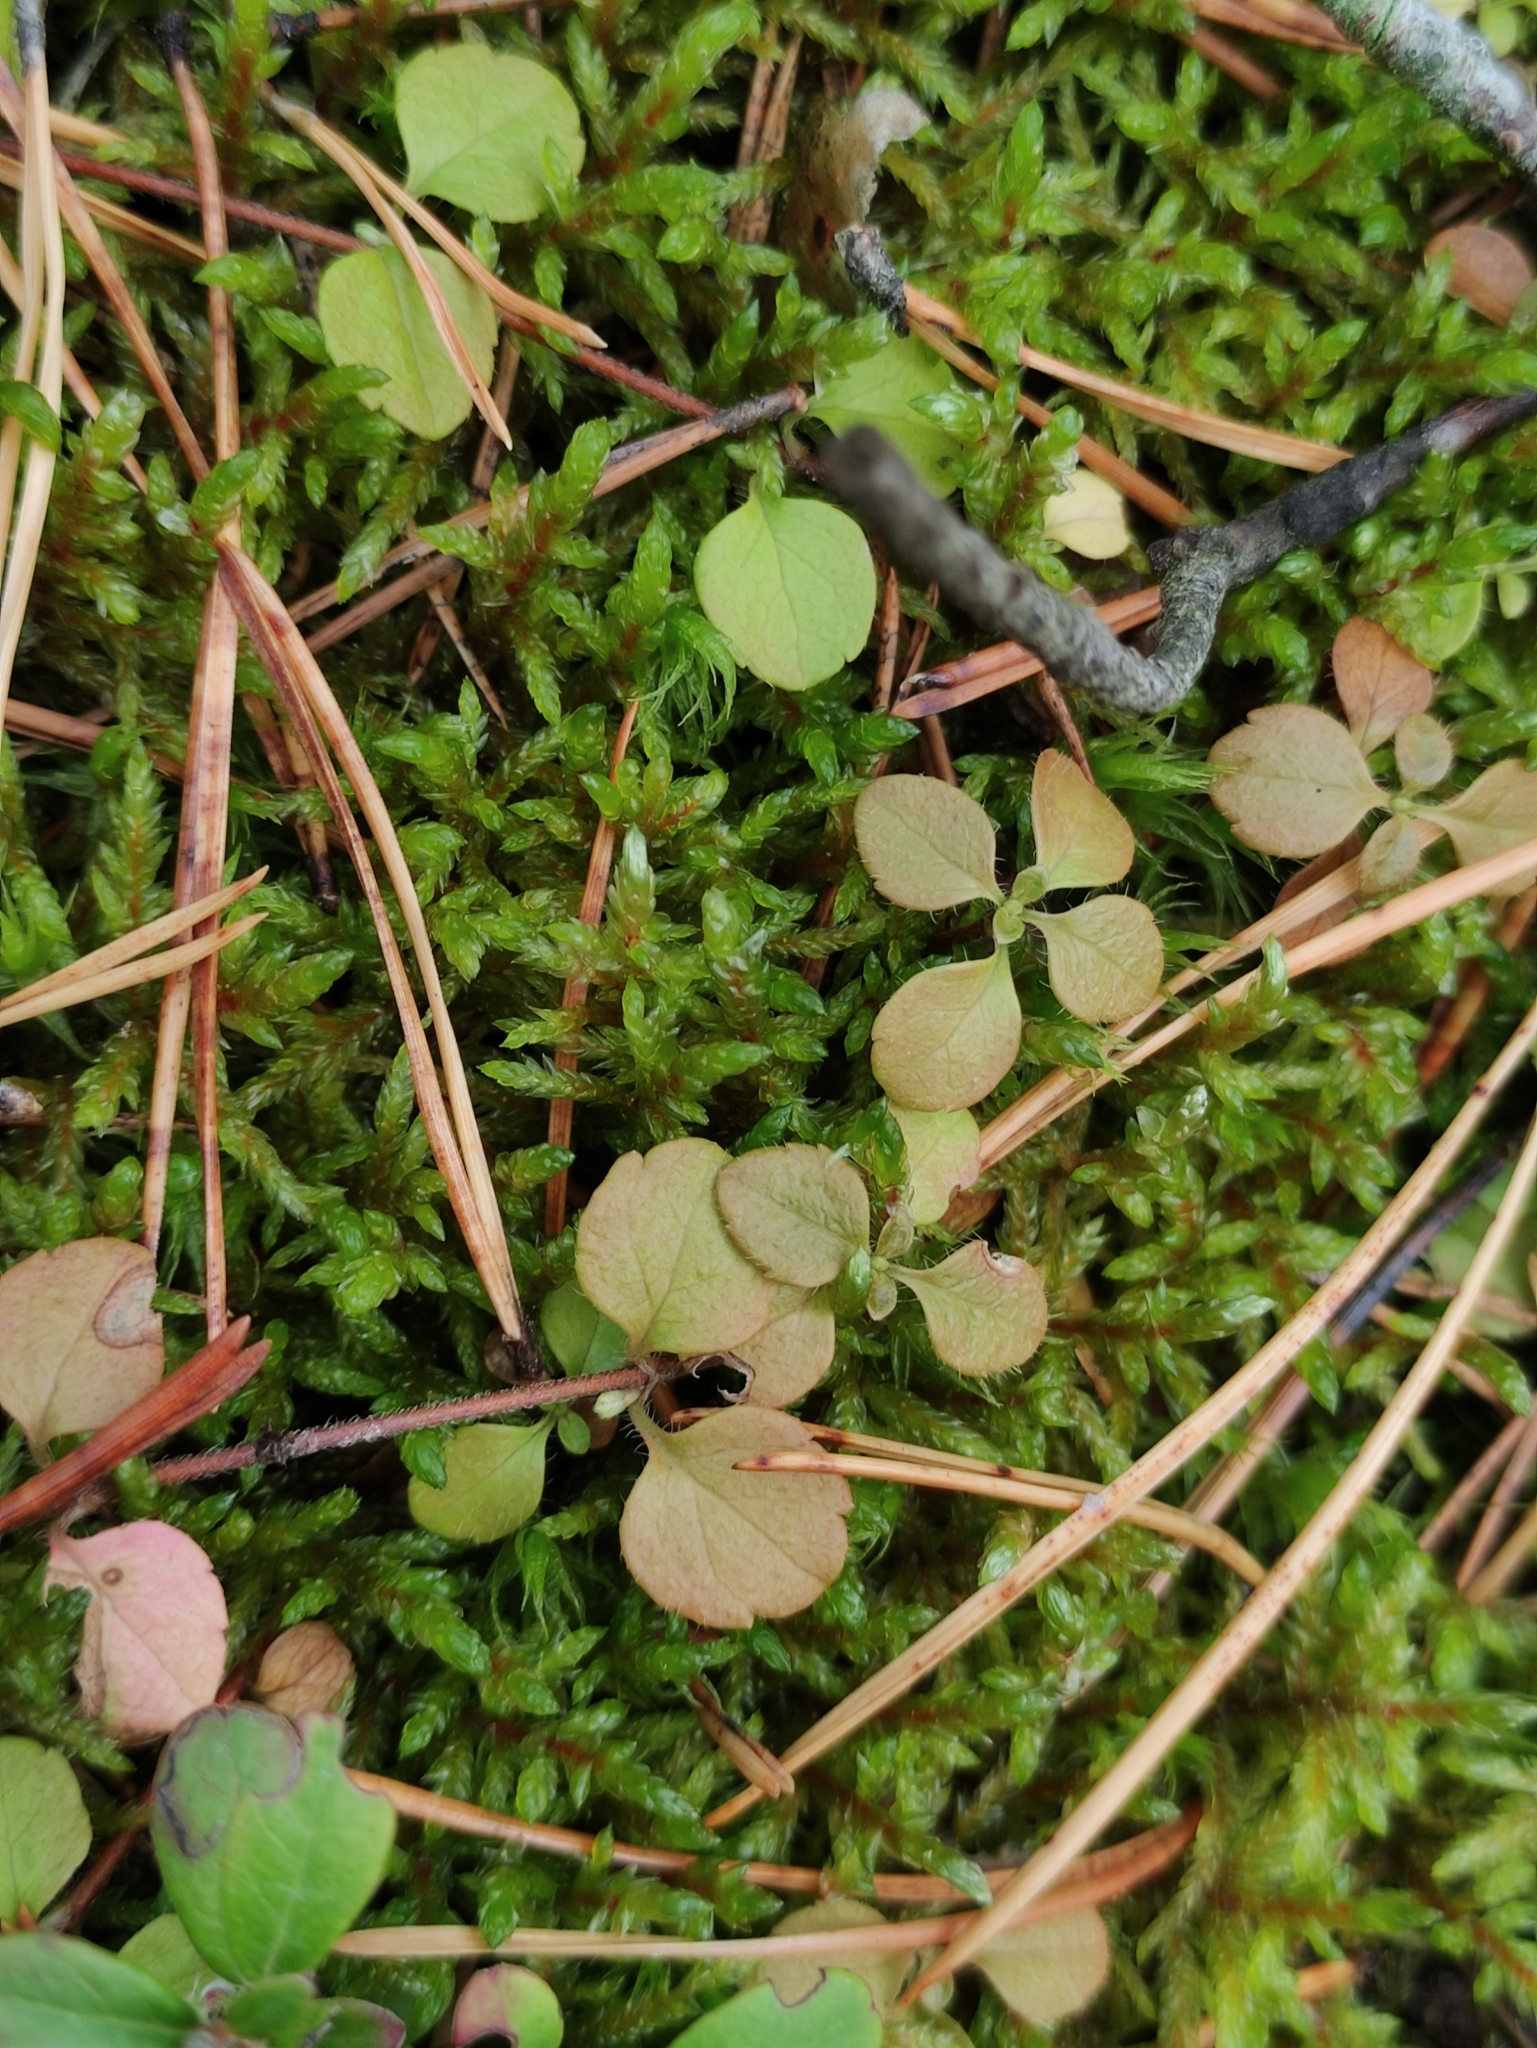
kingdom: Plantae
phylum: Tracheophyta
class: Magnoliopsida
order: Dipsacales
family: Caprifoliaceae
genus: Linnaea
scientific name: Linnaea borealis
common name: Twinflower
